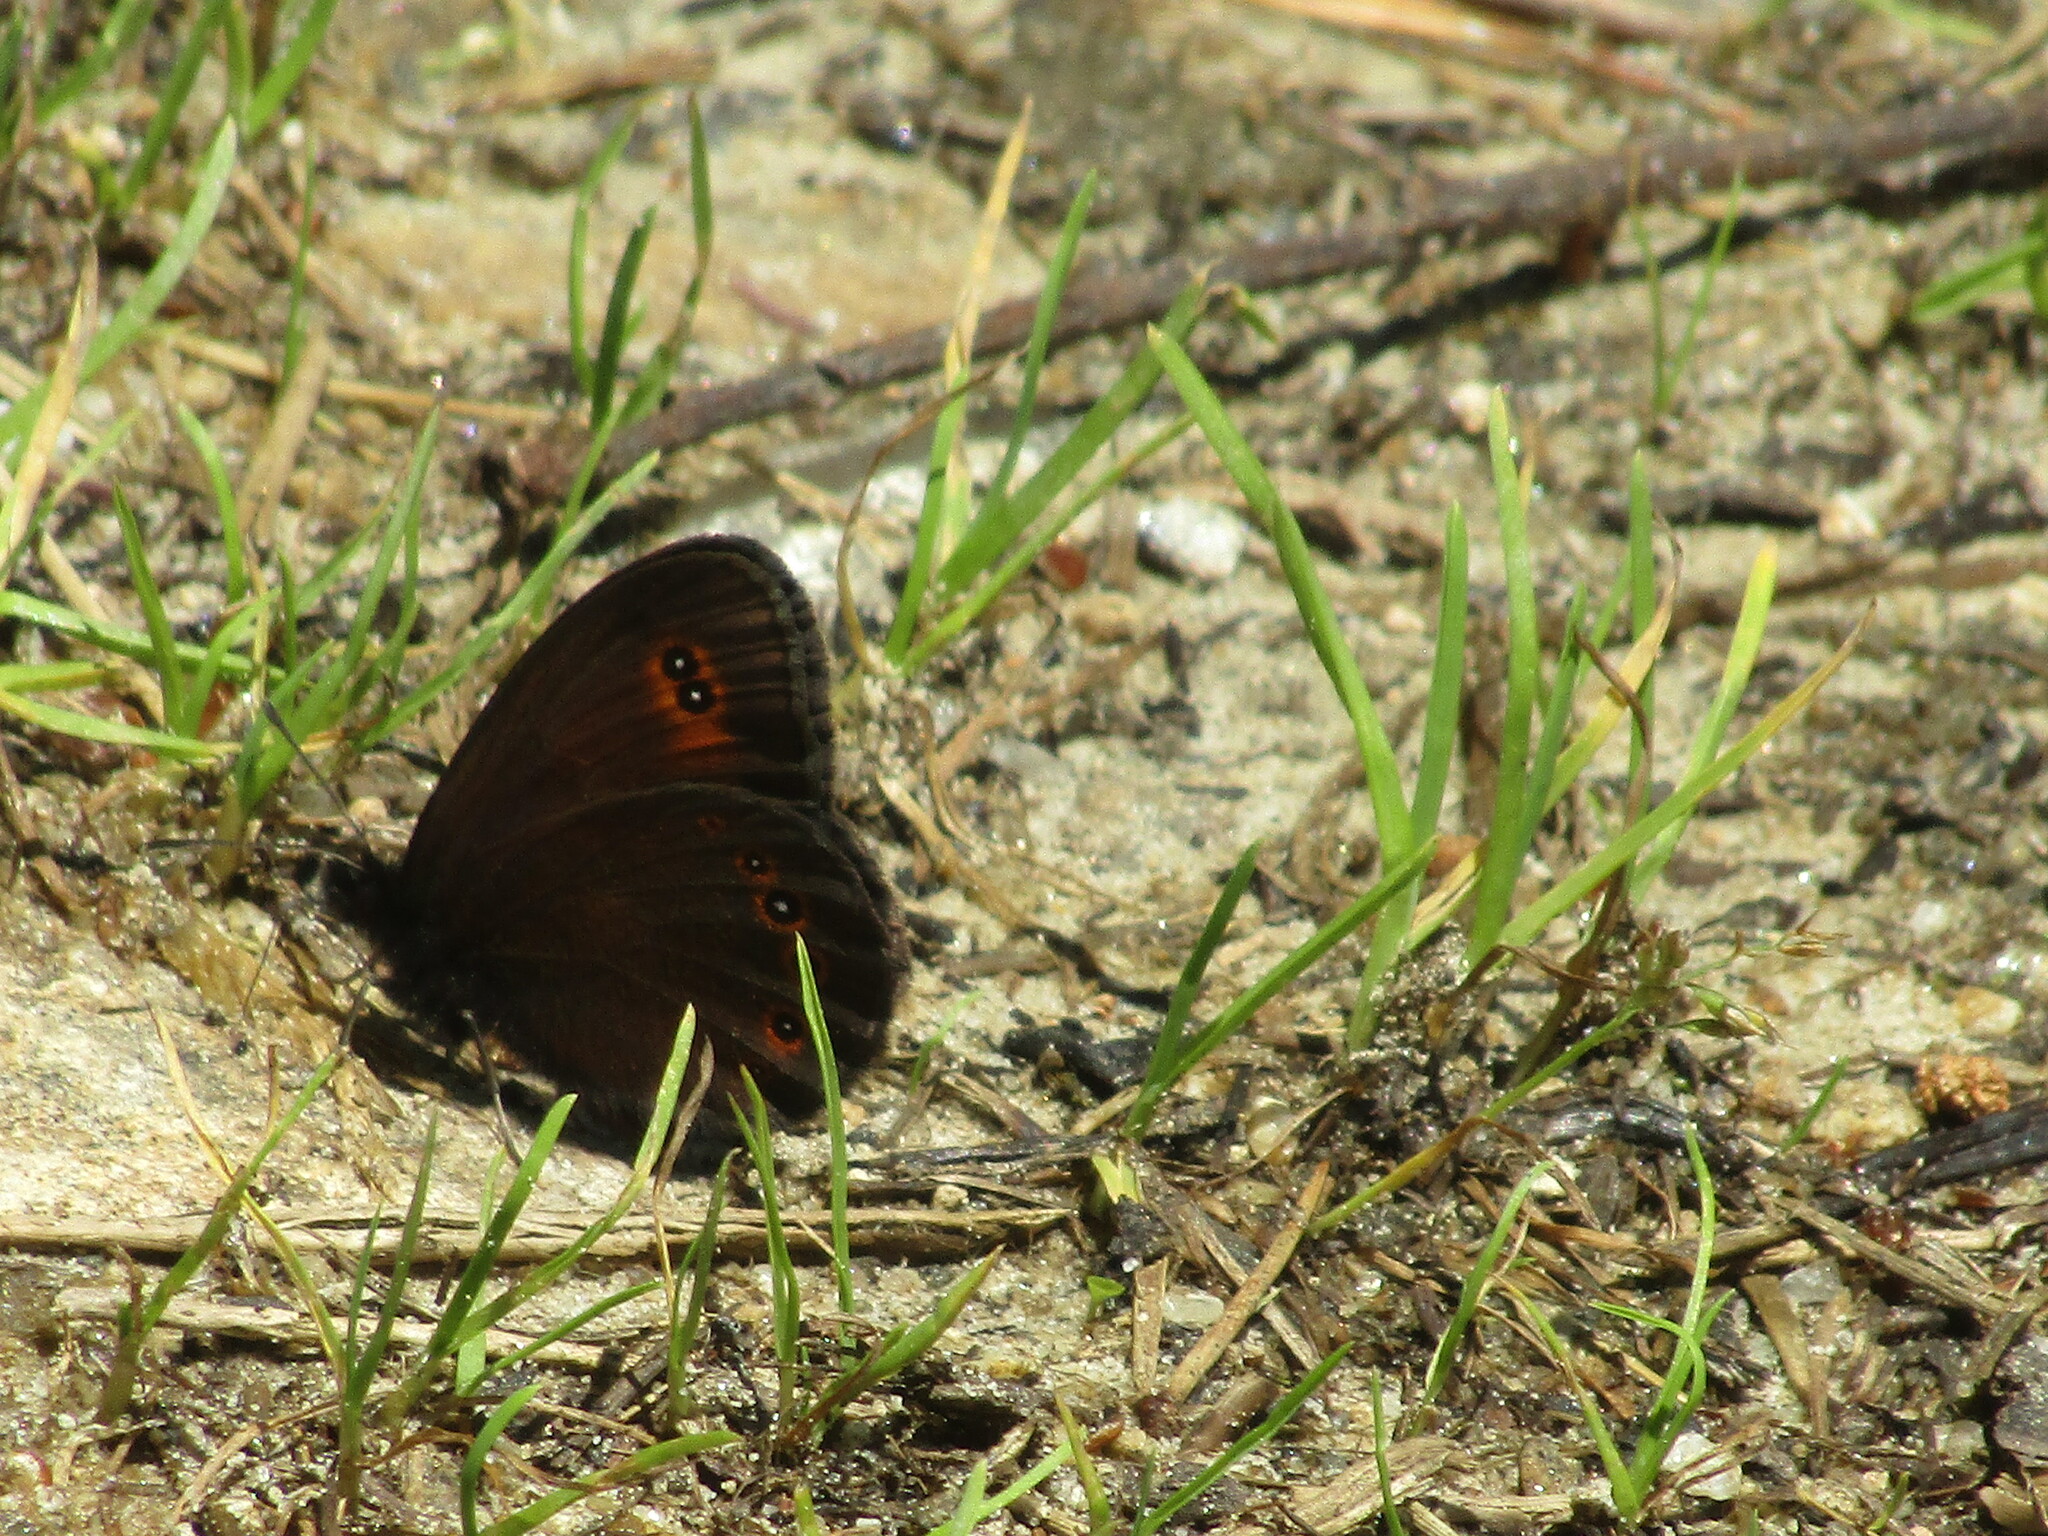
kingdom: Animalia
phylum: Arthropoda
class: Insecta
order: Lepidoptera
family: Nymphalidae
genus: Erebia
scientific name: Erebia oeme
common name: Bright-eyed ringlet
